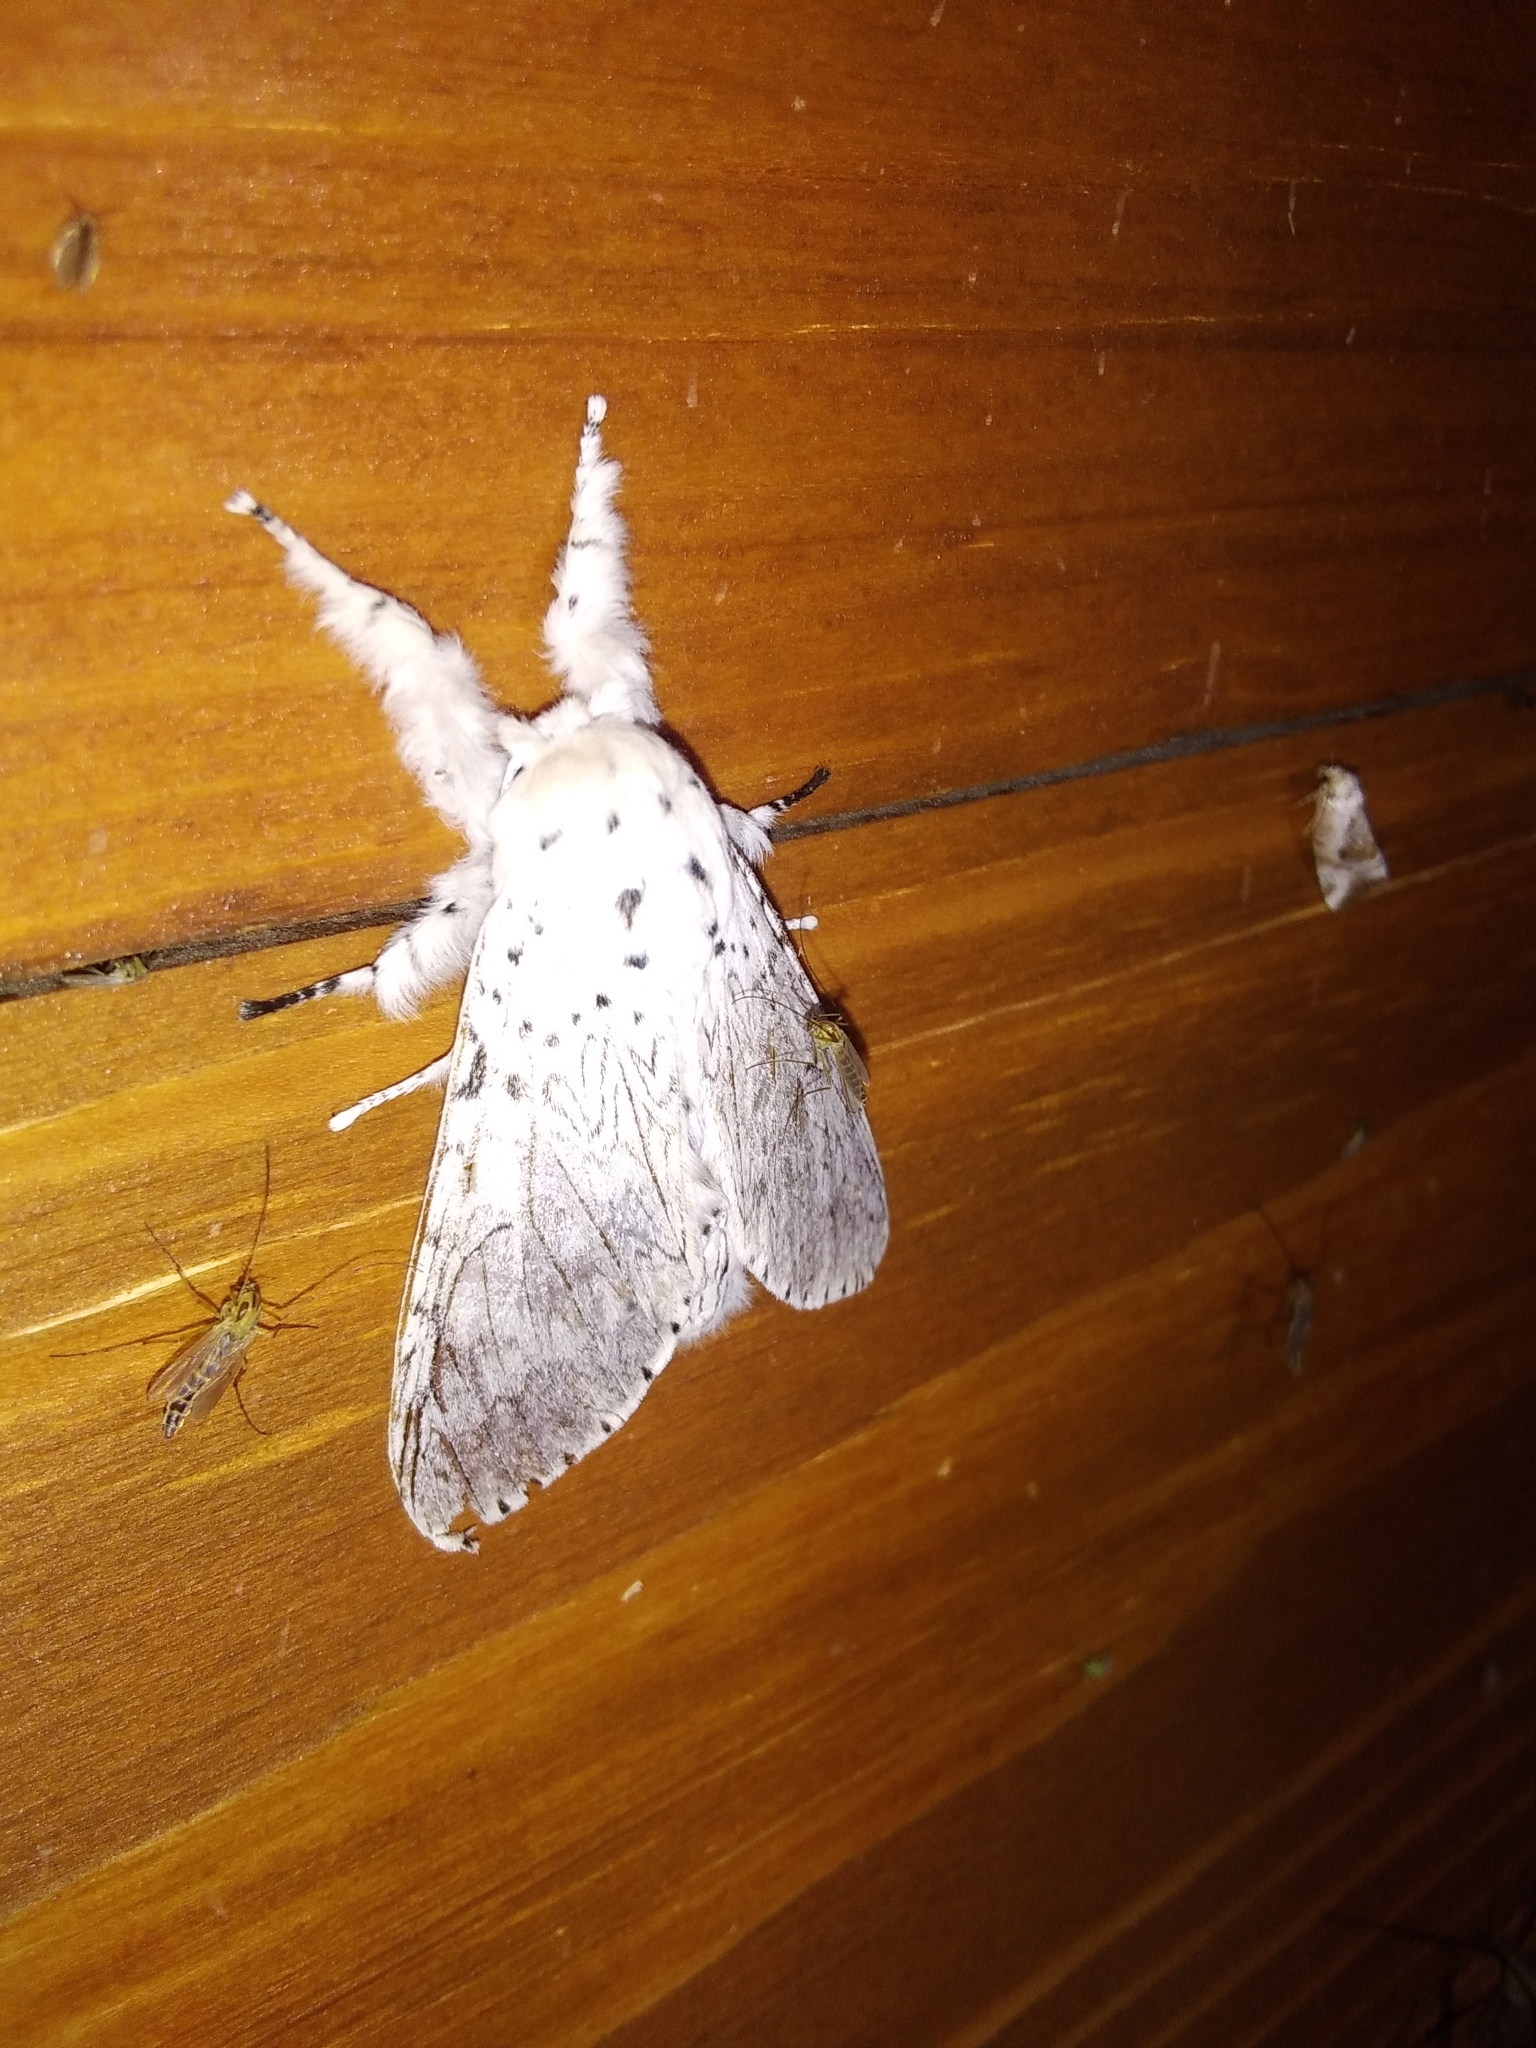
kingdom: Animalia
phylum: Arthropoda
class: Insecta
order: Lepidoptera
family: Notodontidae
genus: Cerura
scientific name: Cerura erminea
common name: Lesser puss moth
